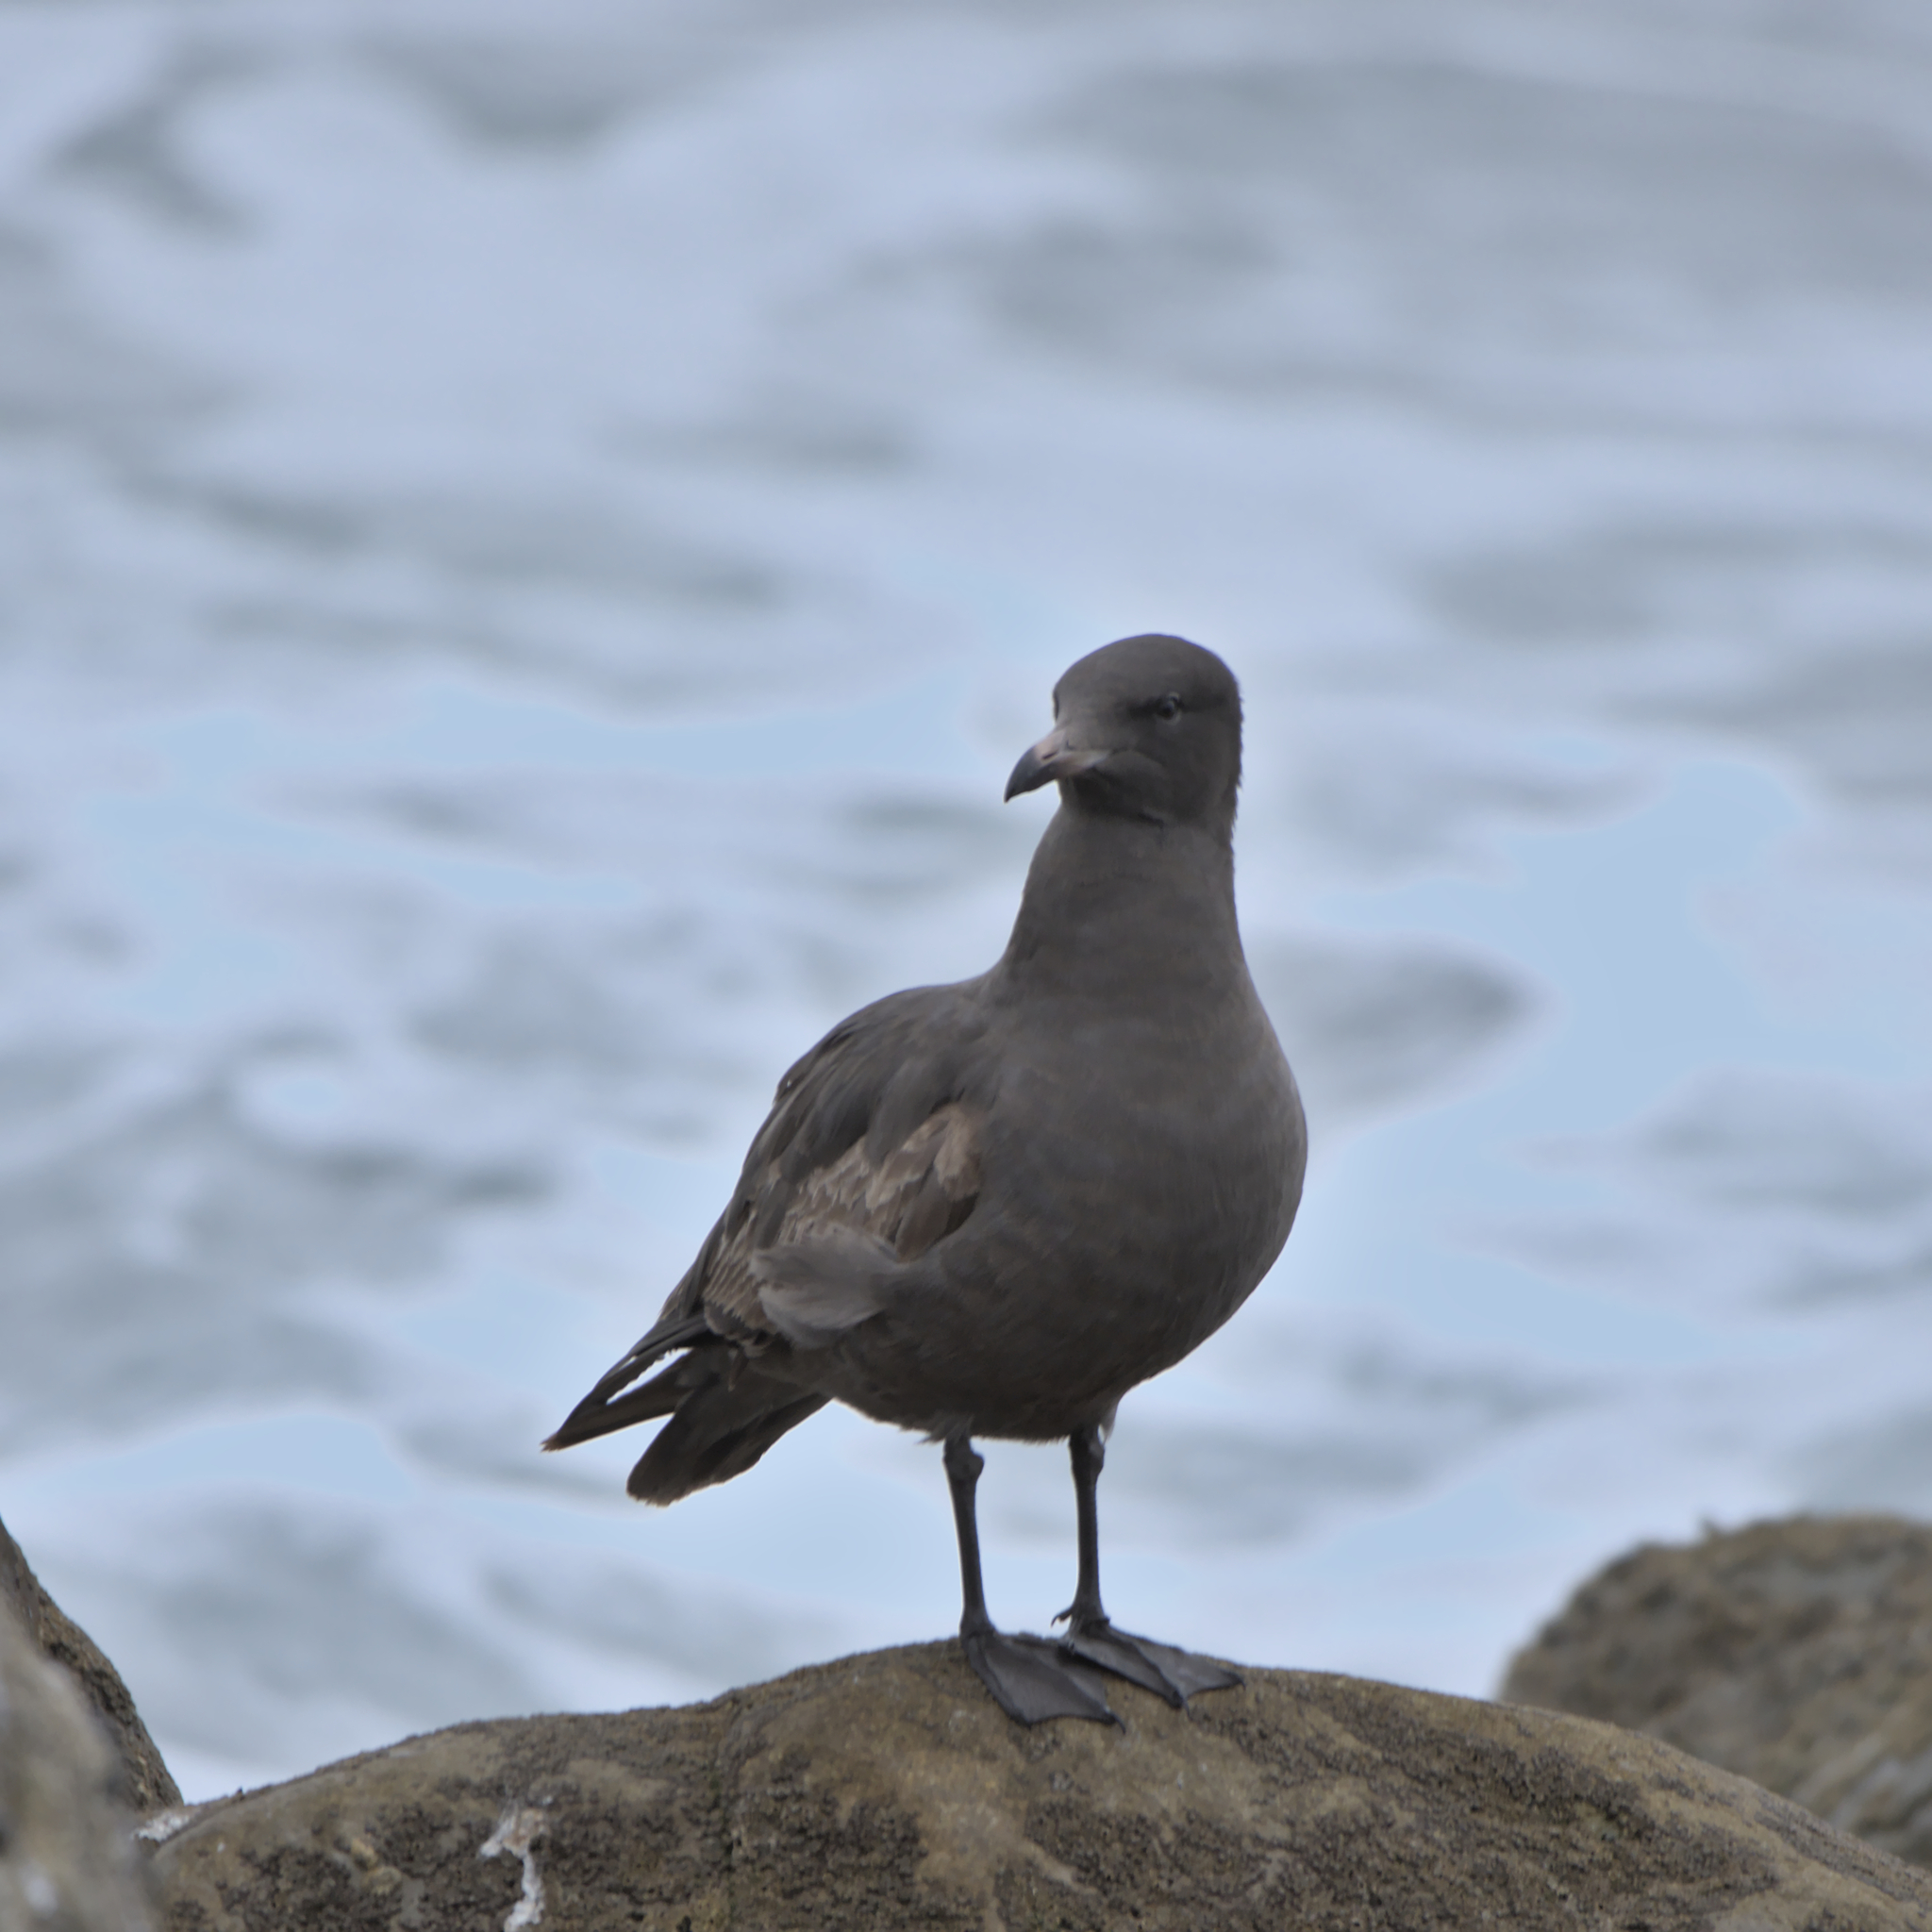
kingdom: Animalia
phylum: Chordata
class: Aves
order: Charadriiformes
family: Laridae
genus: Larus
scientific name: Larus heermanni
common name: Heermann's gull
